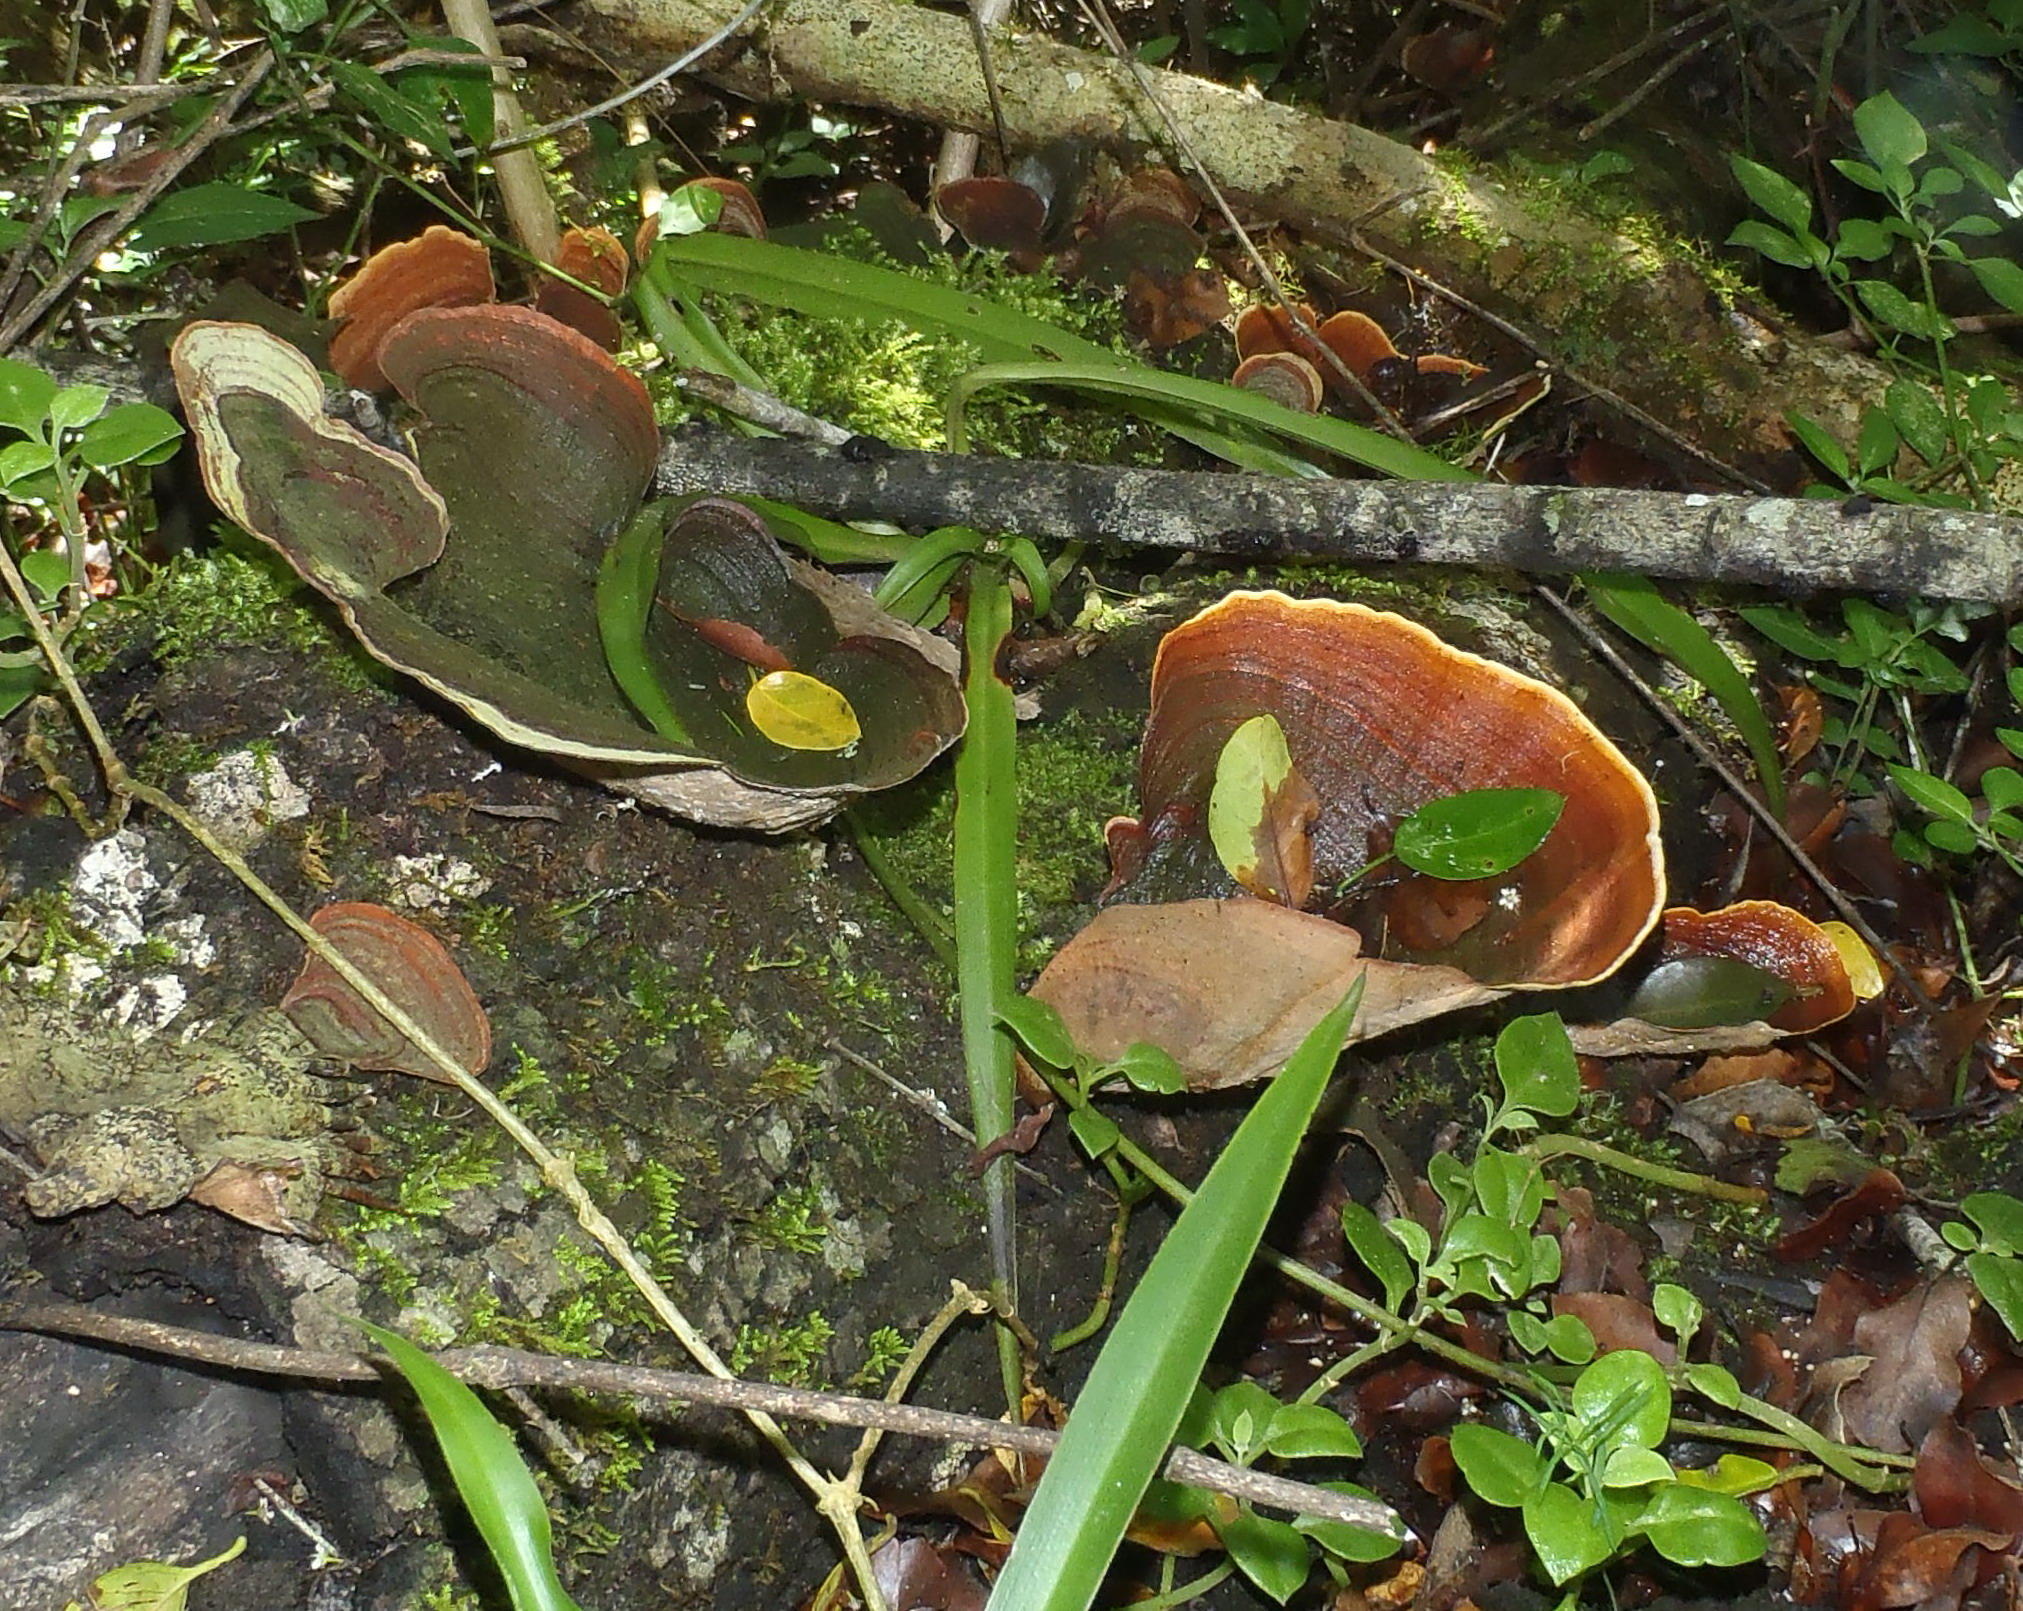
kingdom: Fungi
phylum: Basidiomycota
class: Agaricomycetes
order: Russulales
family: Stereaceae
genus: Stereum
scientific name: Stereum ostrea
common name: False turkeytail
